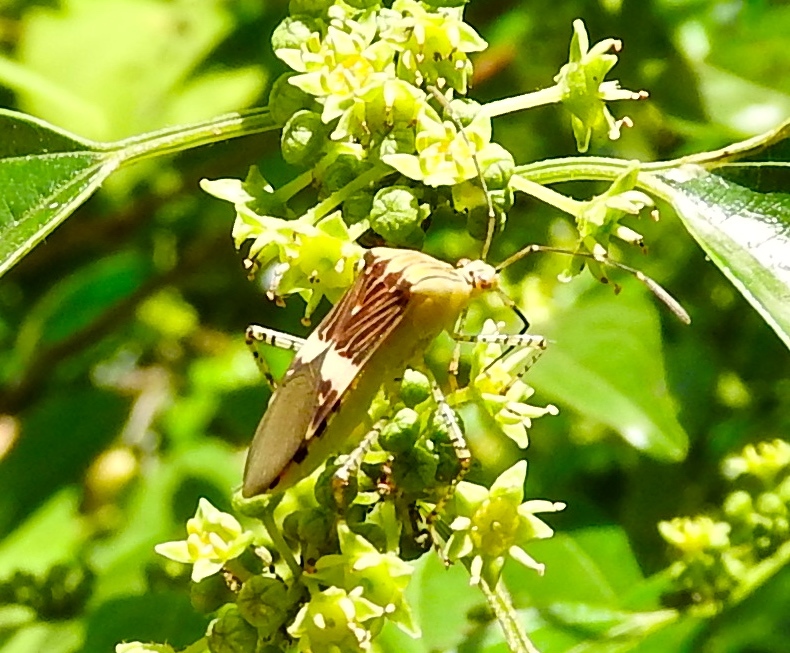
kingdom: Animalia
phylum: Arthropoda
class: Insecta
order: Hemiptera
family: Coreidae
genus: Hypselonotus
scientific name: Hypselonotus lineatus
